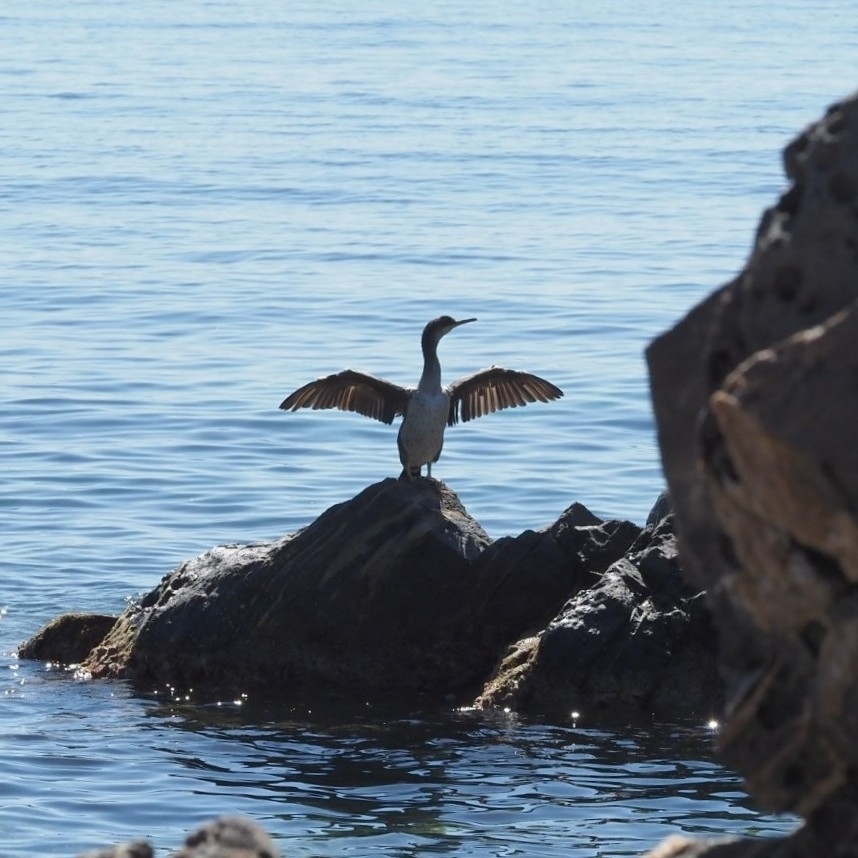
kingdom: Animalia
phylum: Chordata
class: Aves
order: Suliformes
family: Phalacrocoracidae
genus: Phalacrocorax
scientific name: Phalacrocorax aristotelis
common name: European shag
